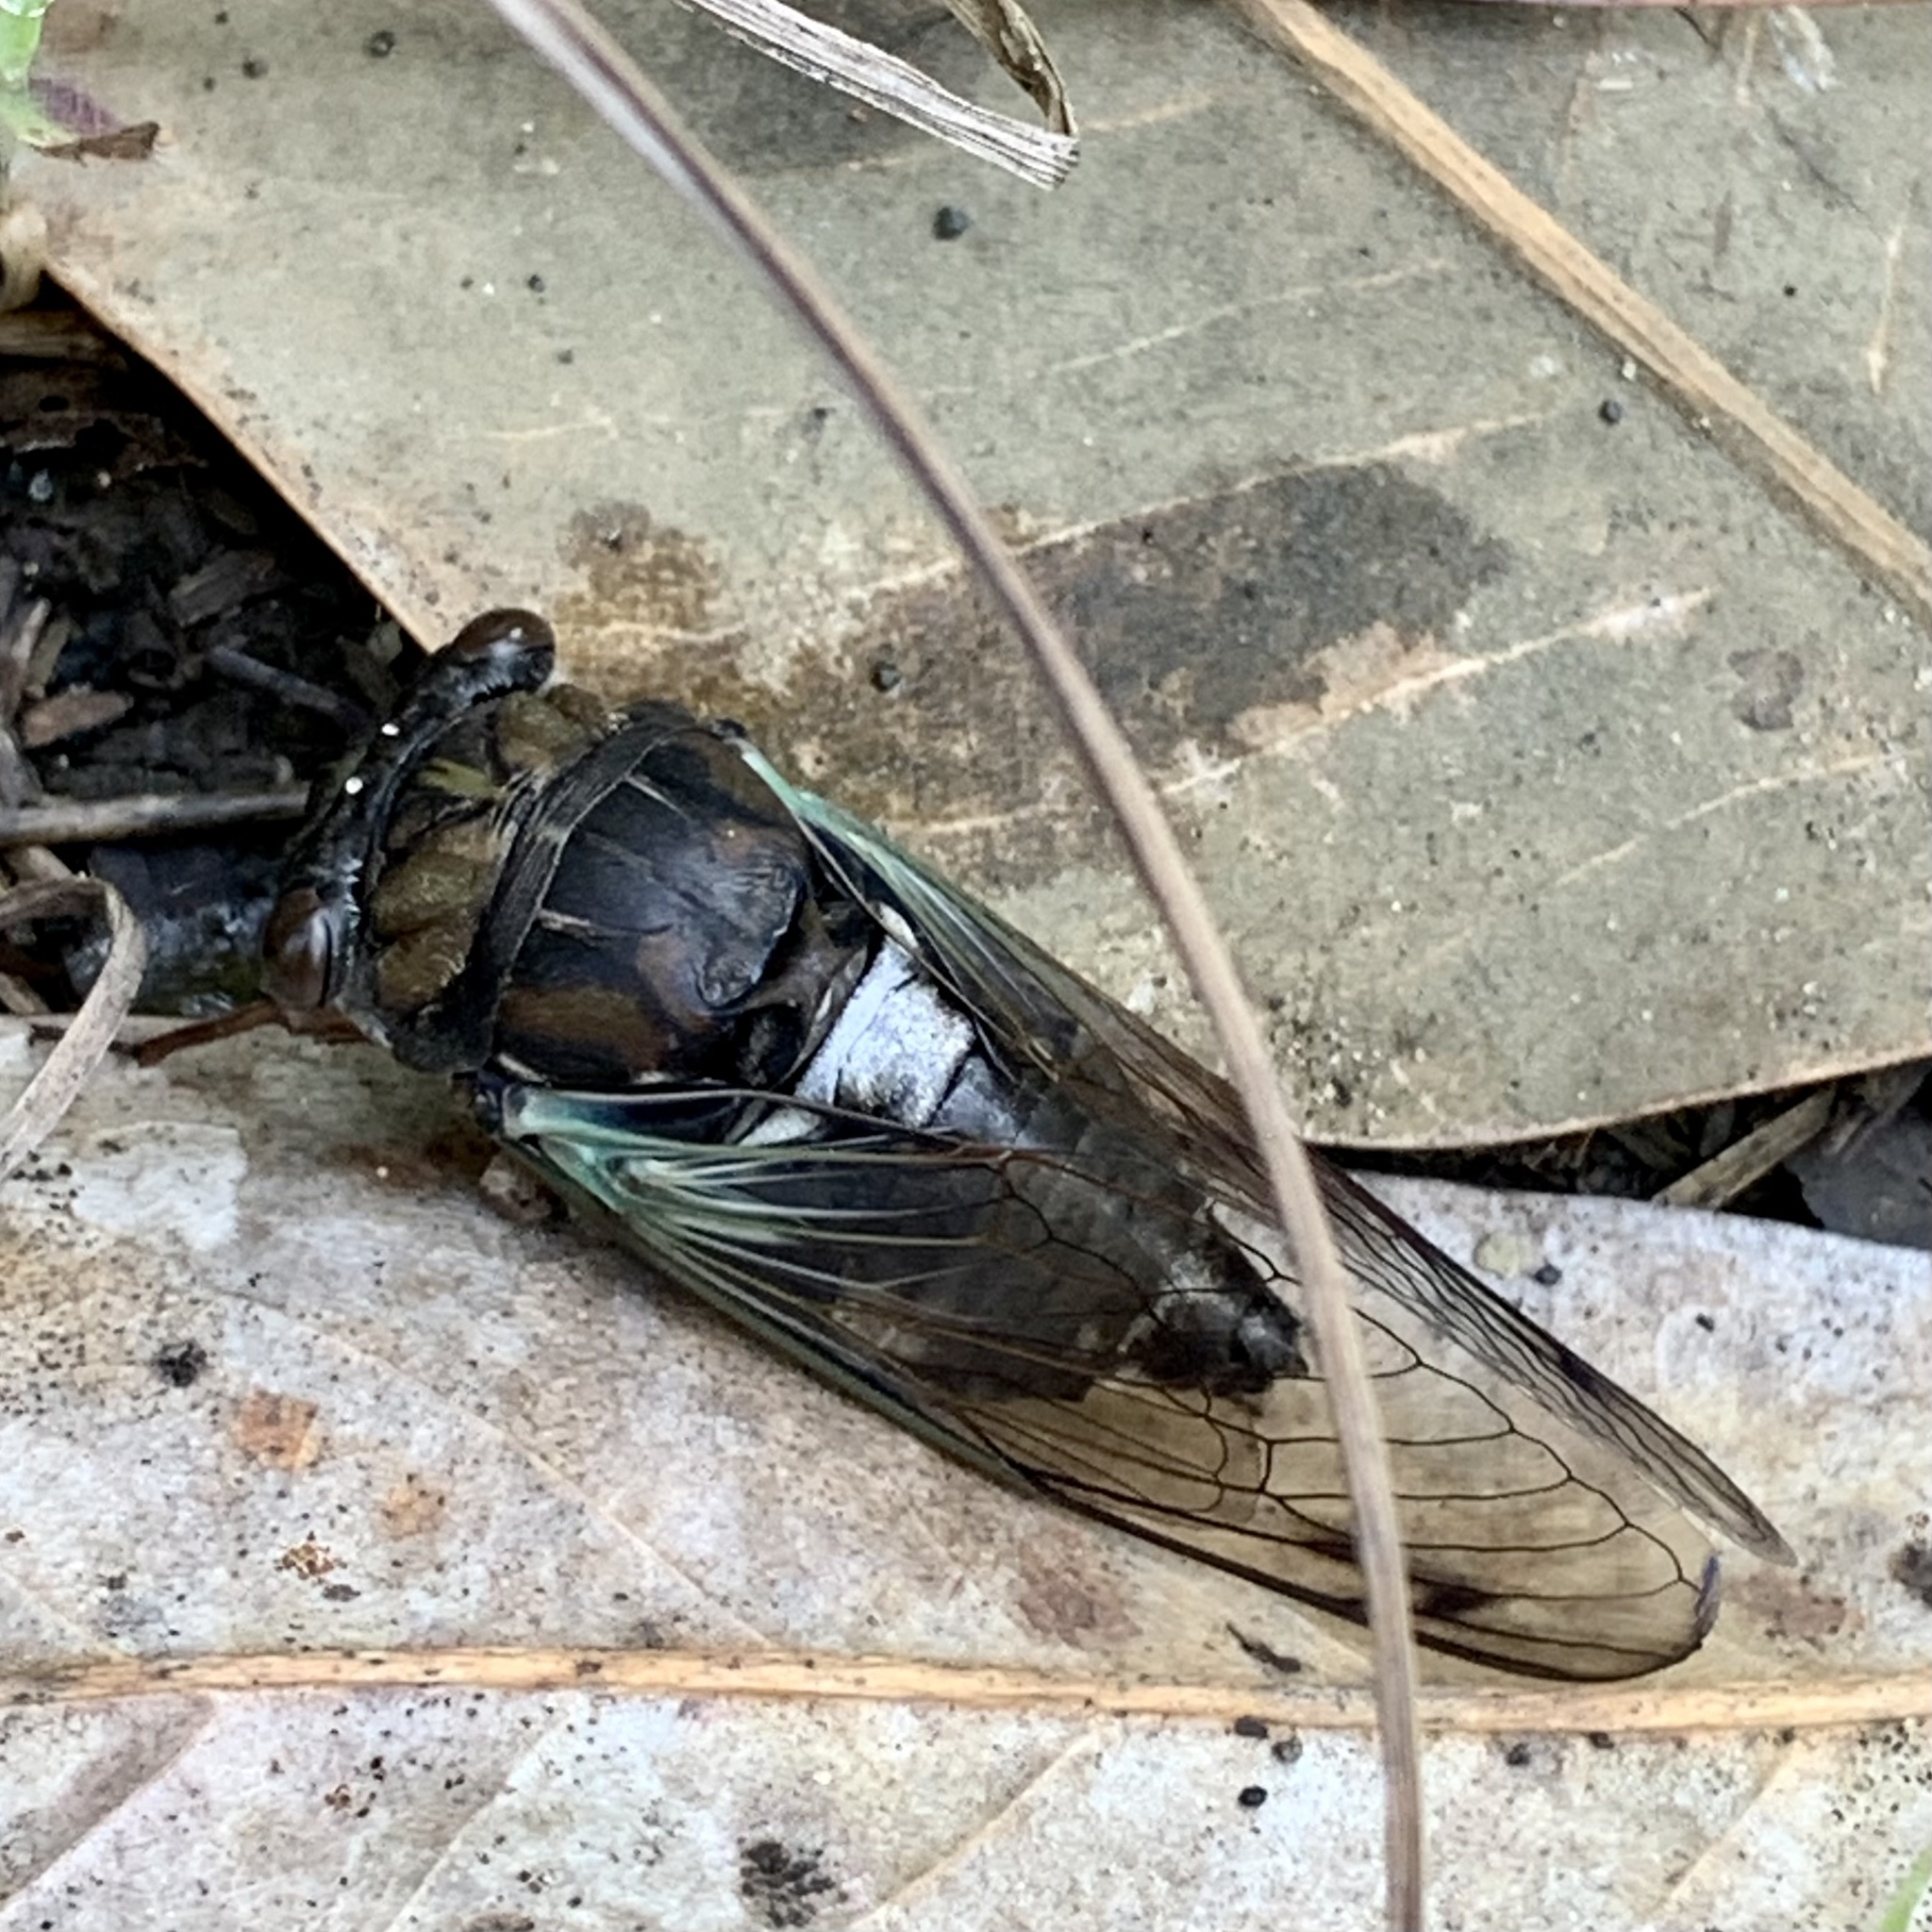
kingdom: Animalia
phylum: Arthropoda
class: Insecta
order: Hemiptera
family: Cicadidae
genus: Neotibicen
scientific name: Neotibicen lyricen
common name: Lyric cicada
